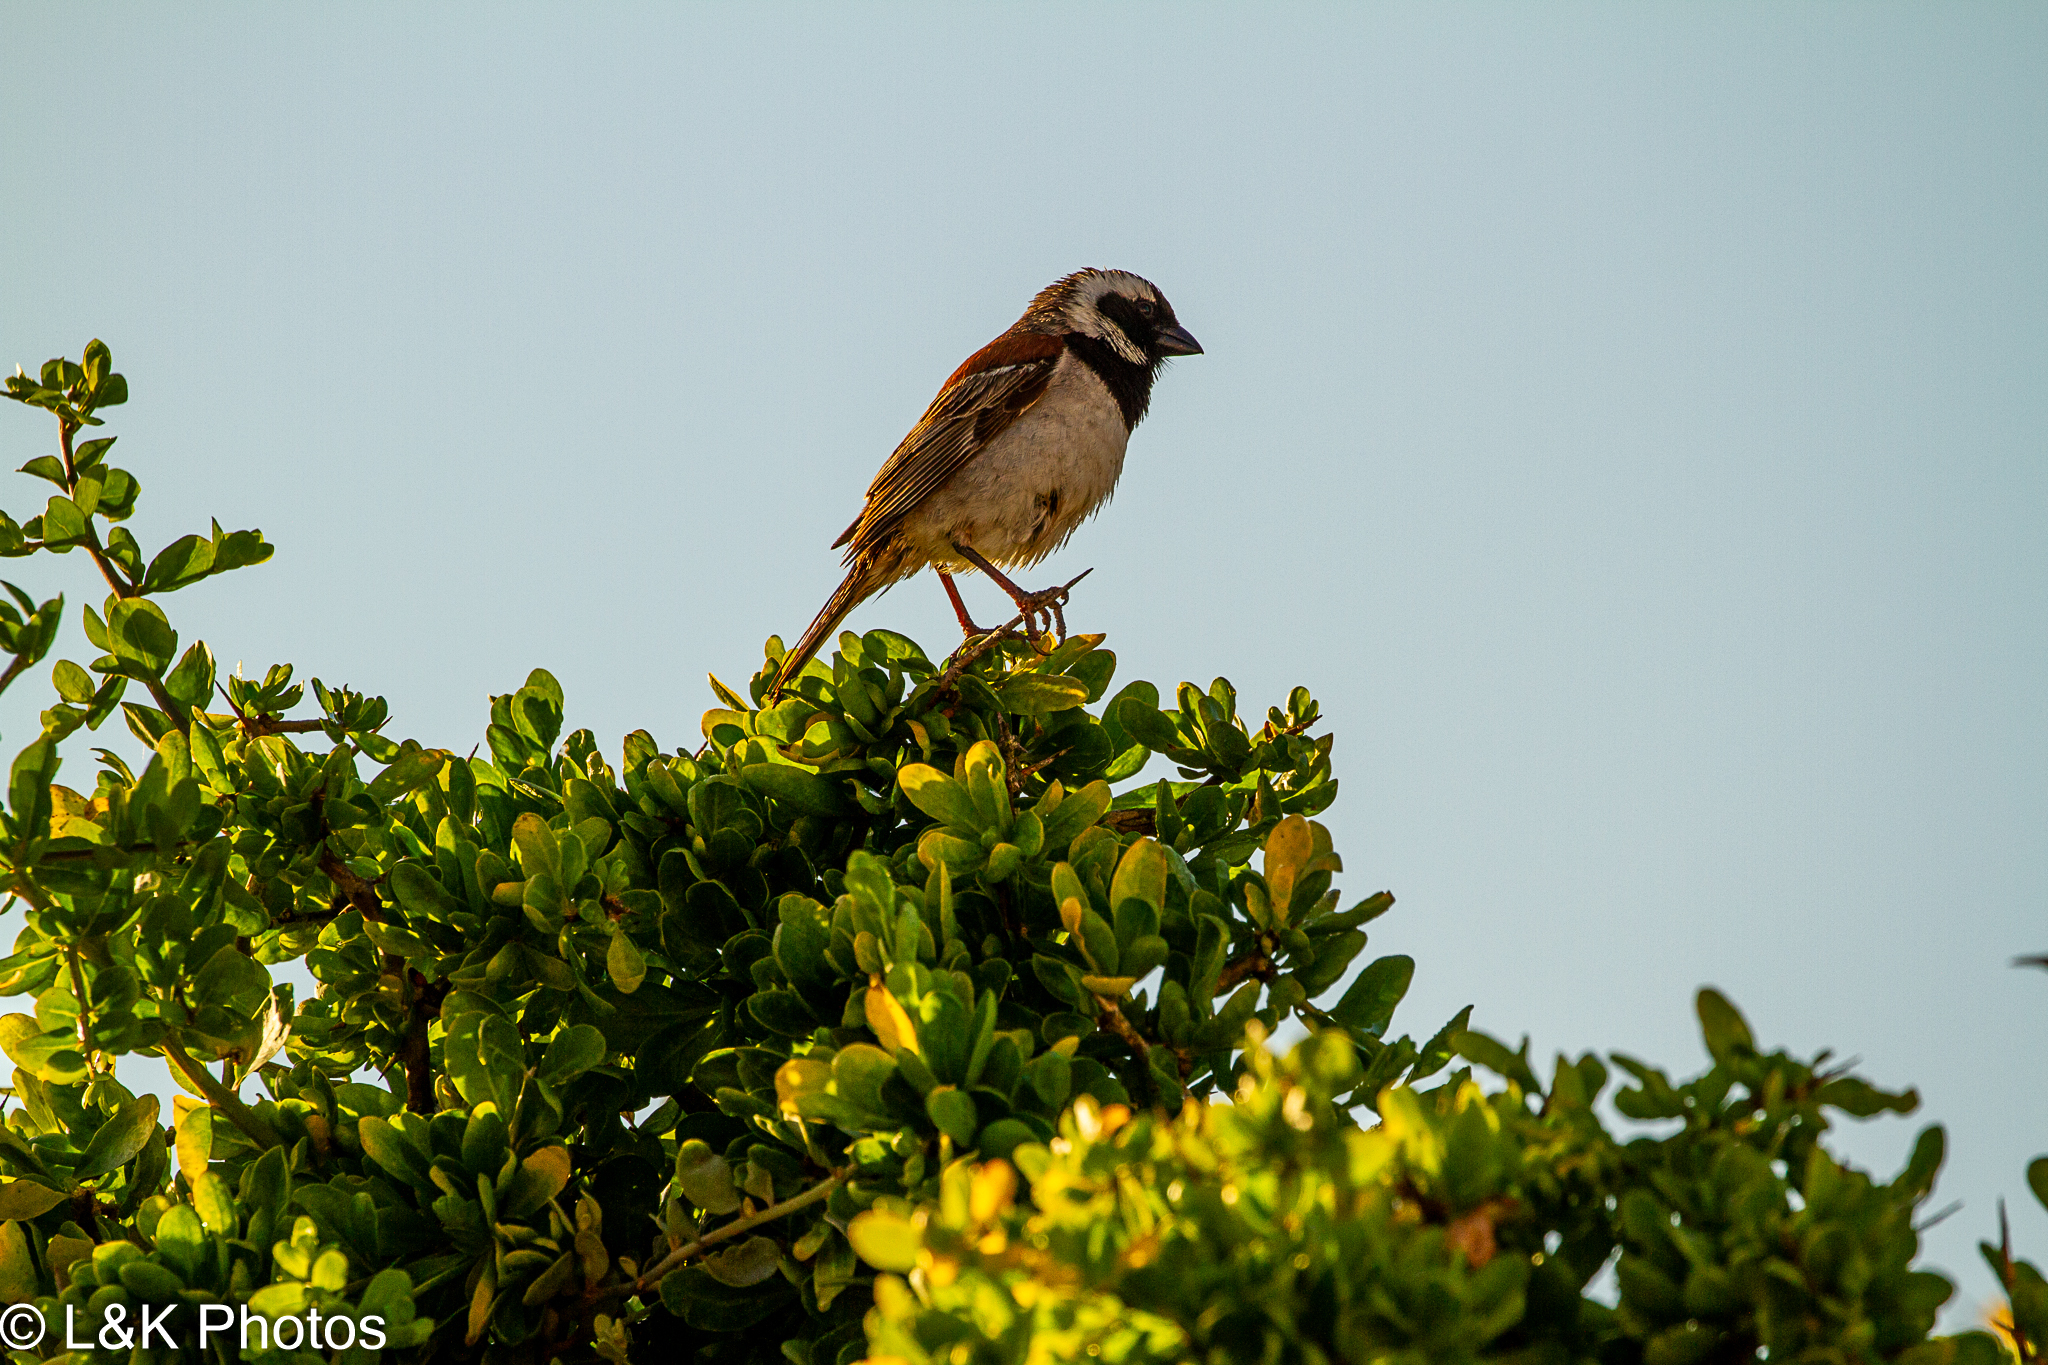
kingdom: Animalia
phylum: Chordata
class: Aves
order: Passeriformes
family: Passeridae
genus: Passer
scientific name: Passer melanurus
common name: Cape sparrow
